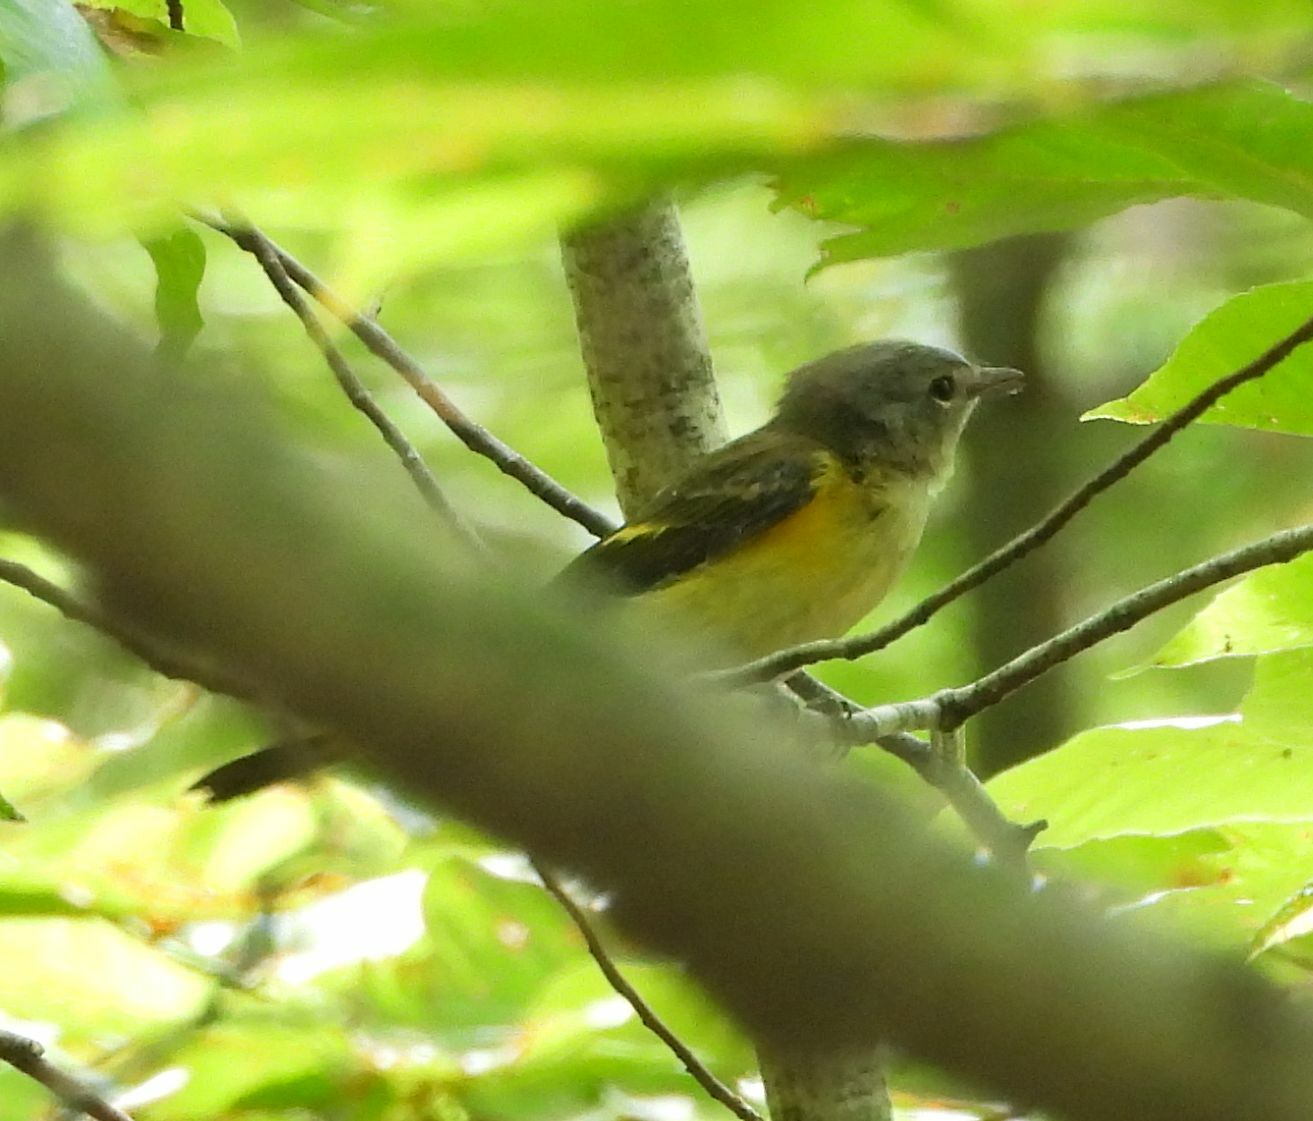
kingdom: Animalia
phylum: Chordata
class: Aves
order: Passeriformes
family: Parulidae
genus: Setophaga
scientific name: Setophaga ruticilla
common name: American redstart
